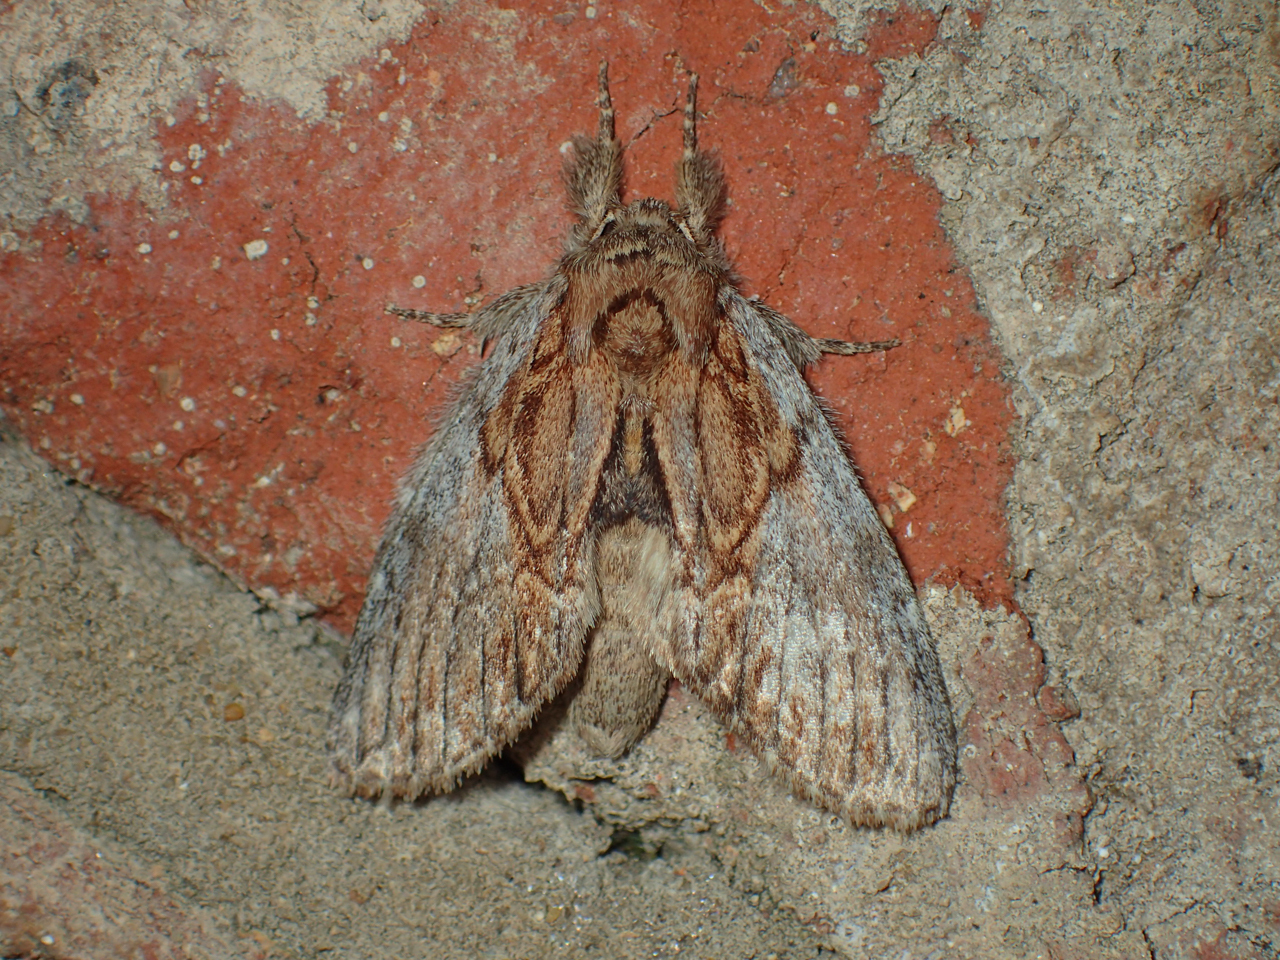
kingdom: Animalia
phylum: Arthropoda
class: Insecta
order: Lepidoptera
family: Notodontidae
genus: Peridea
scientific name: Peridea basitriens
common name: Oval-based prominent
